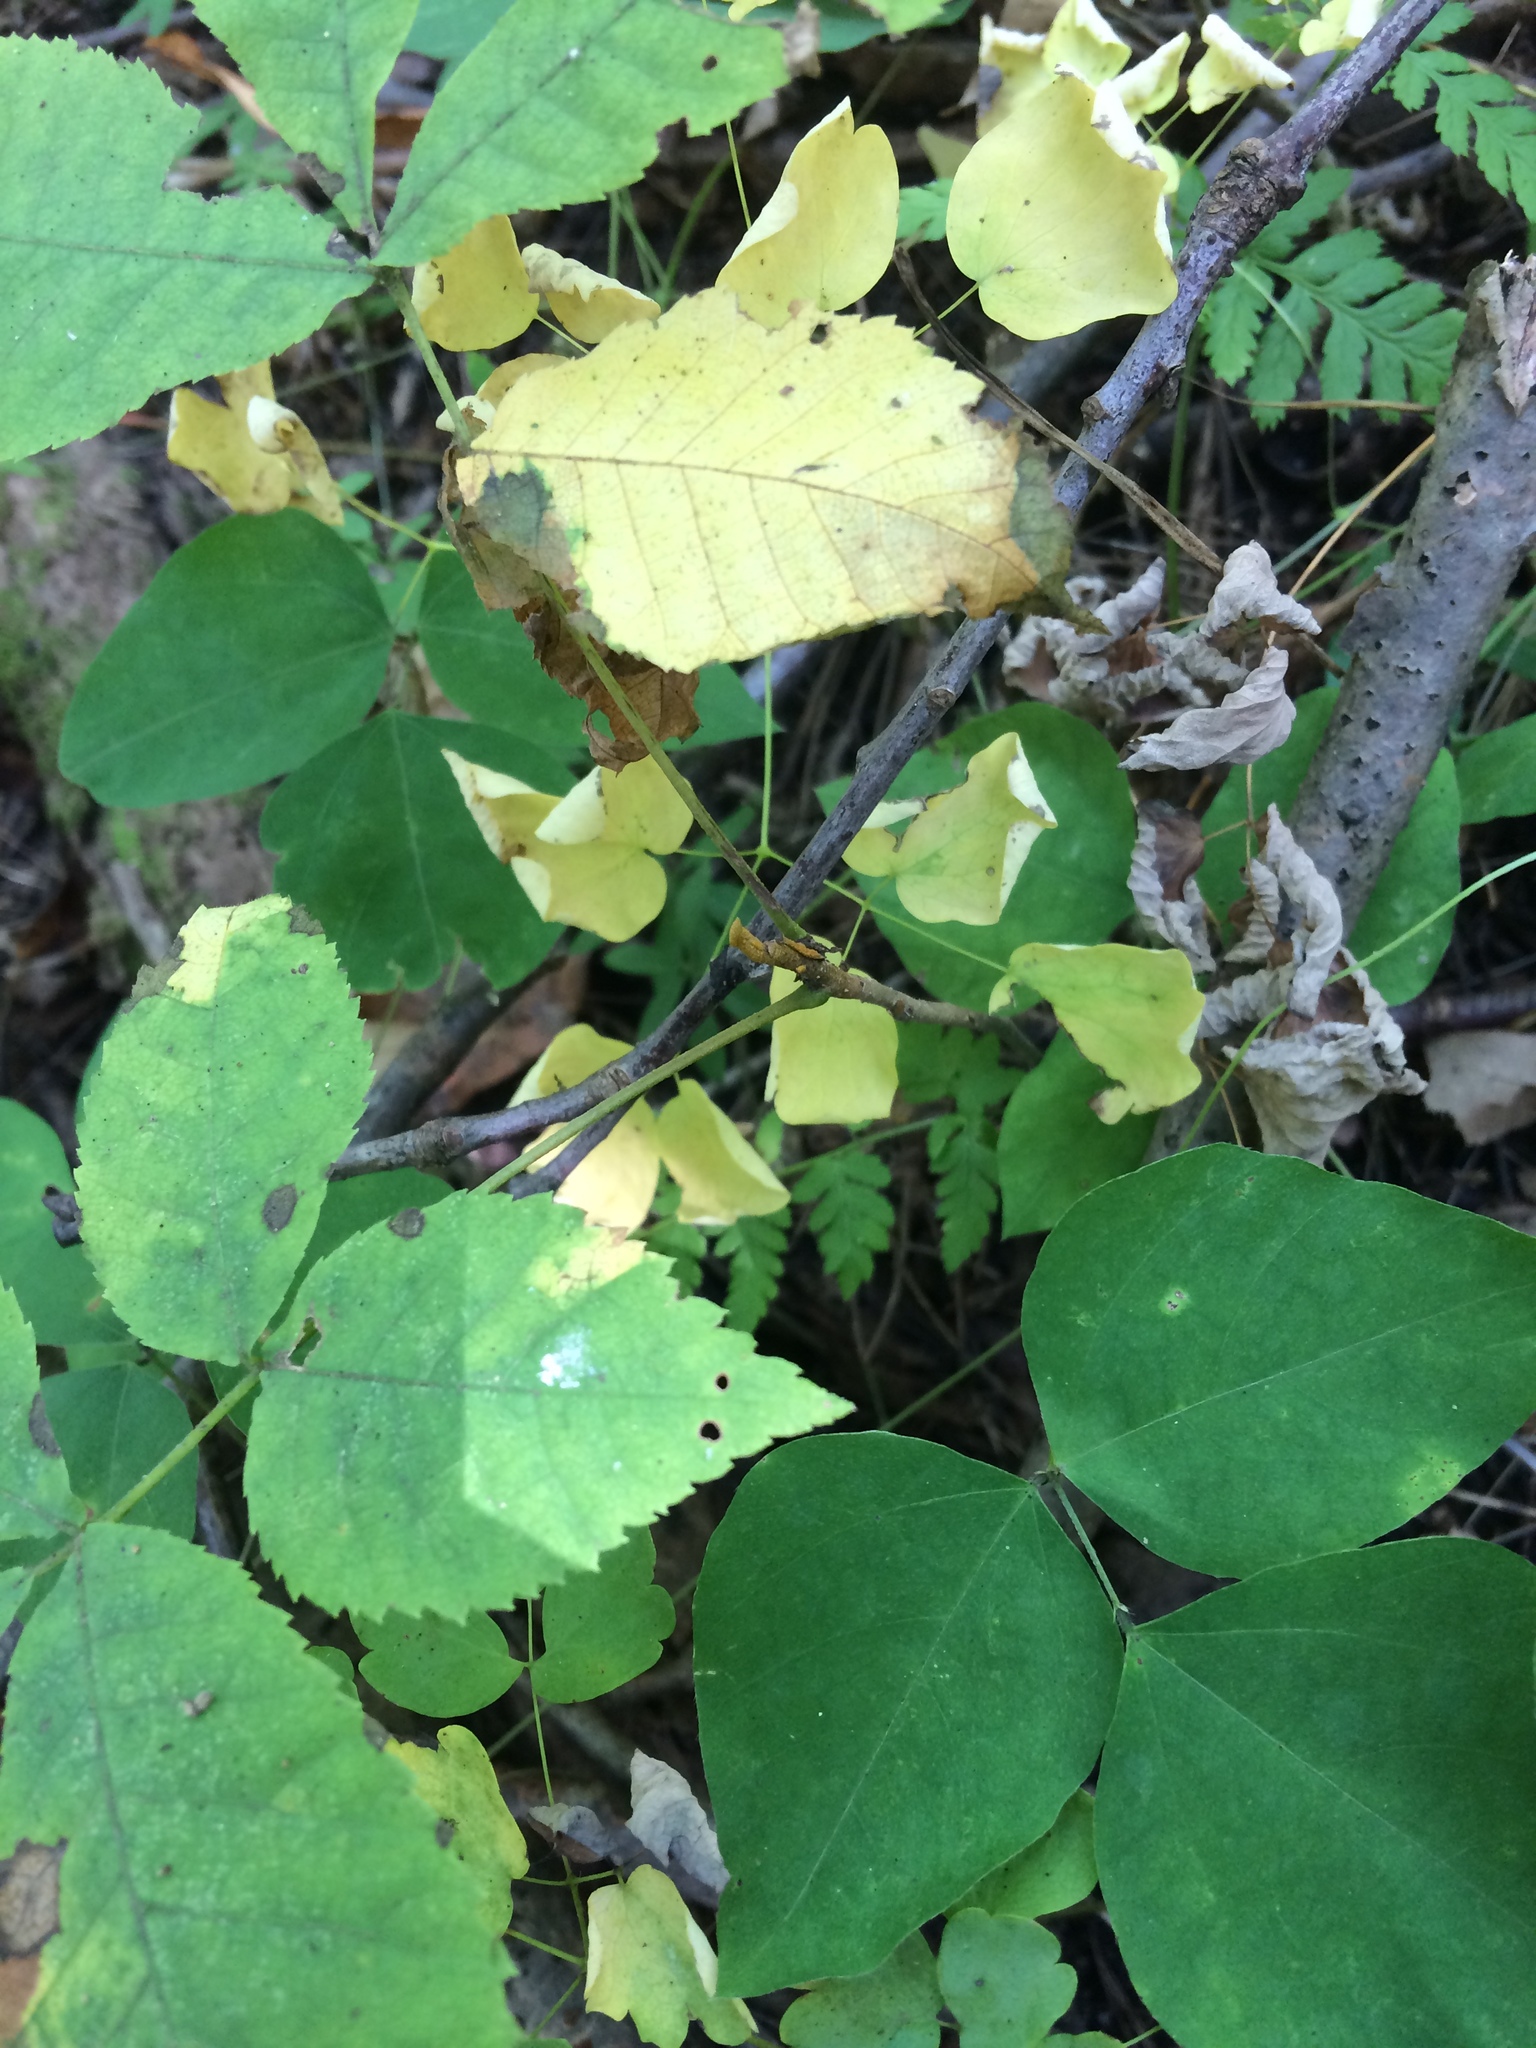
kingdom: Plantae
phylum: Tracheophyta
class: Magnoliopsida
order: Fagales
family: Juglandaceae
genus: Carya
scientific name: Carya cordiformis
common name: Bitternut hickory
